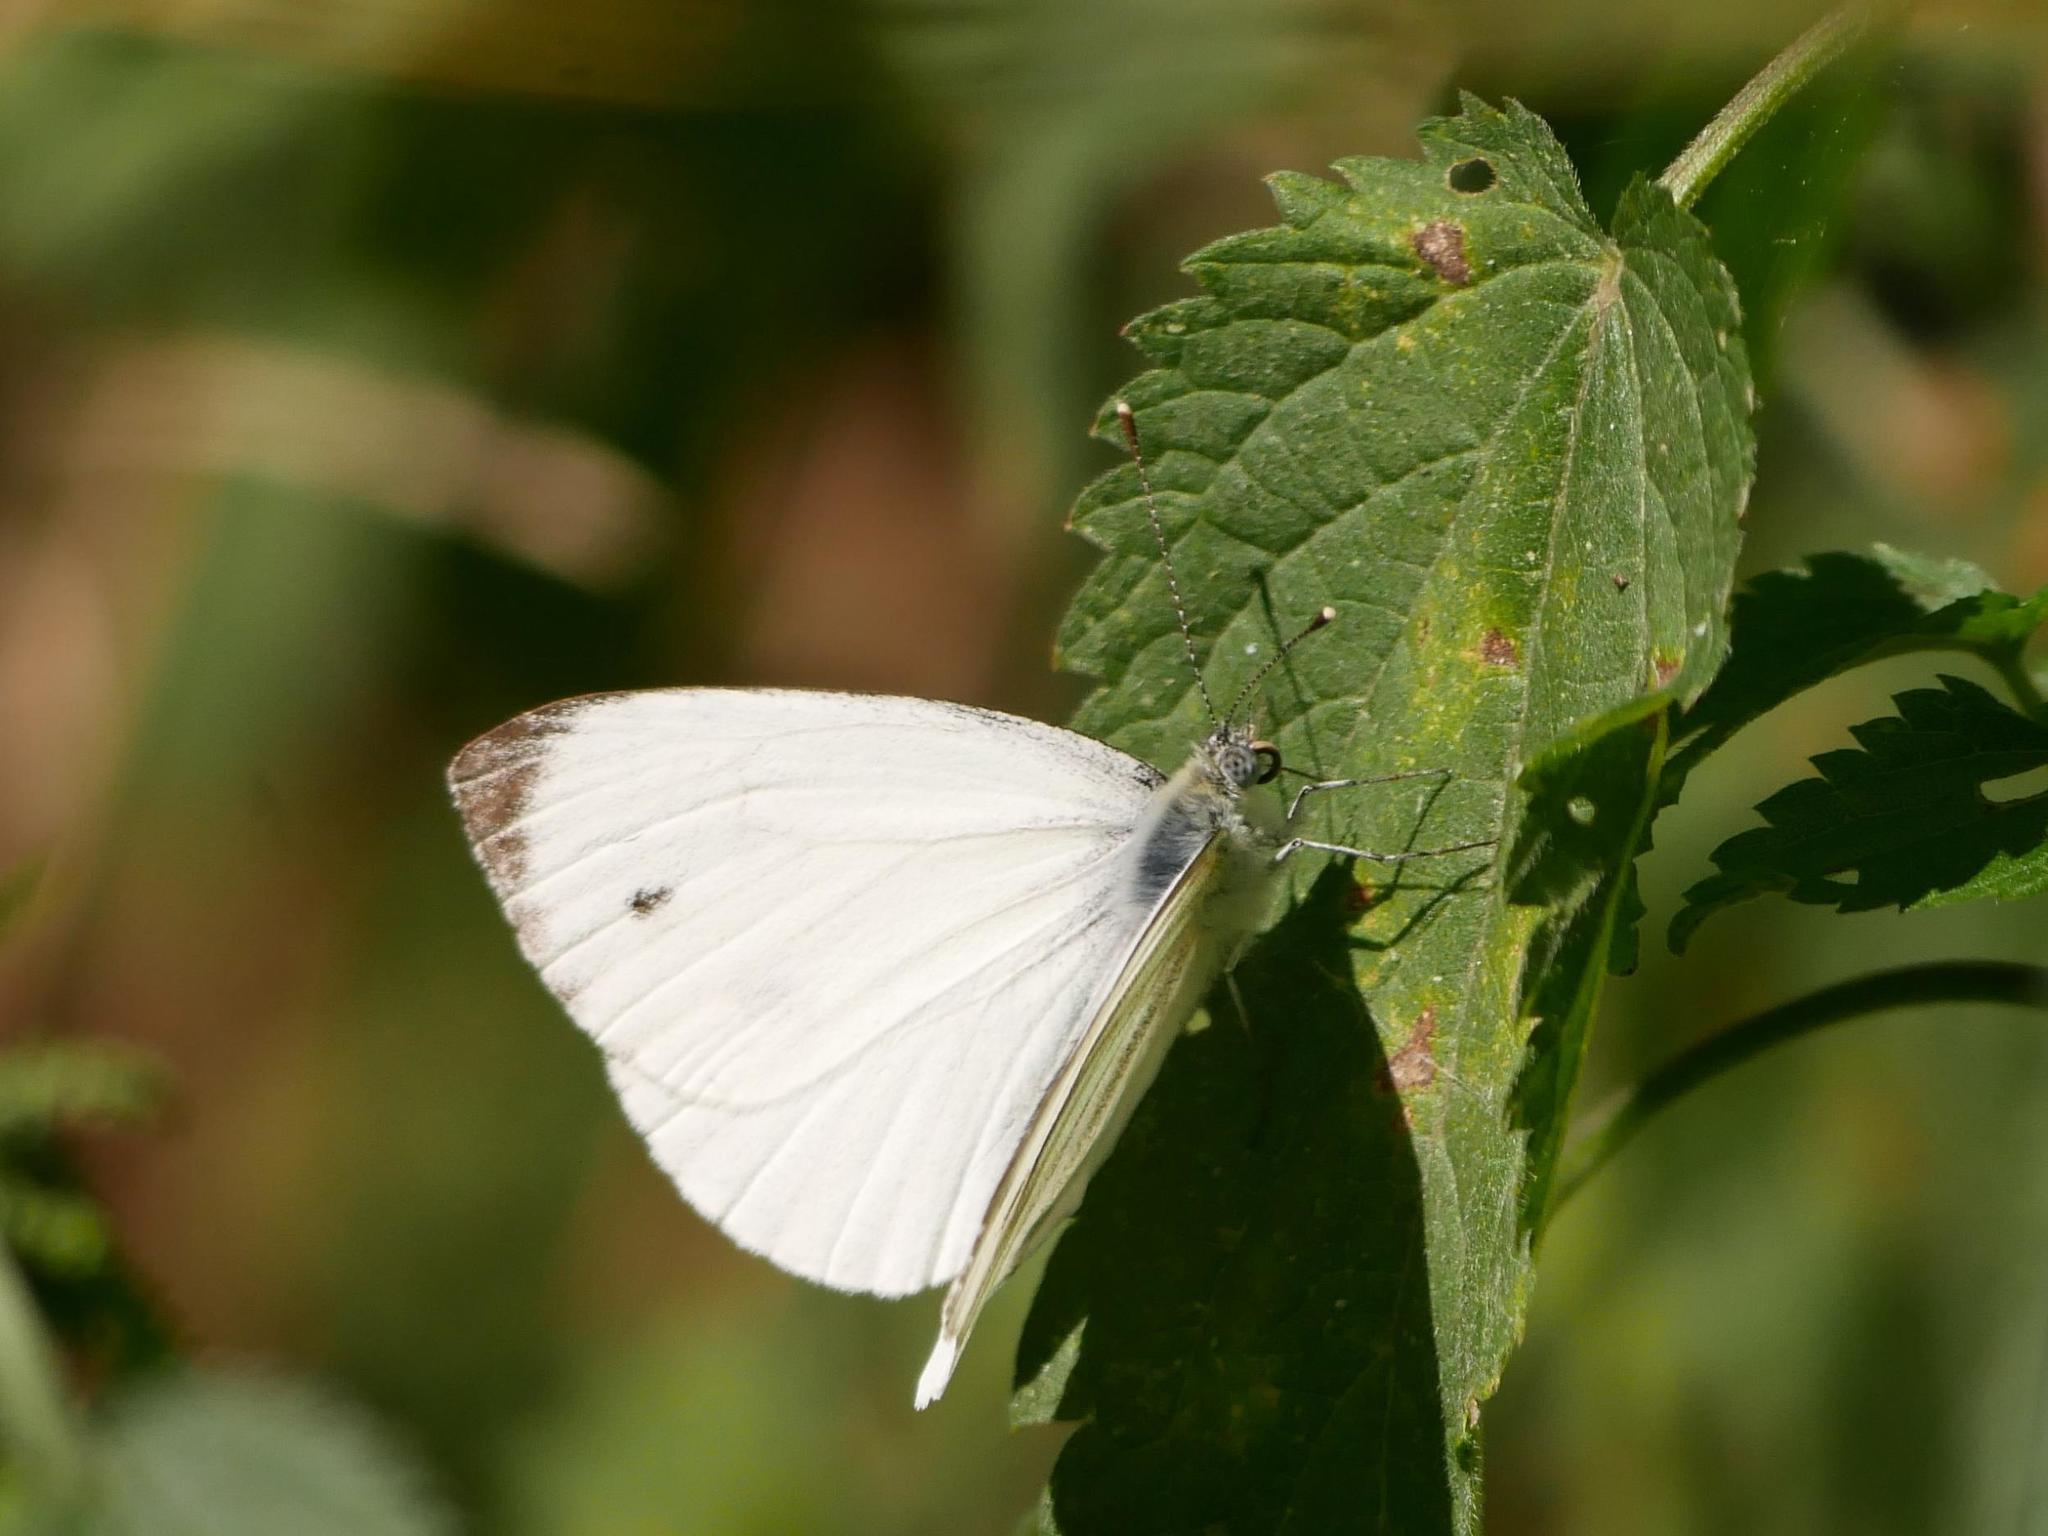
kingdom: Animalia
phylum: Arthropoda
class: Insecta
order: Lepidoptera
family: Pieridae
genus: Pieris
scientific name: Pieris napi
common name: Green-veined white
